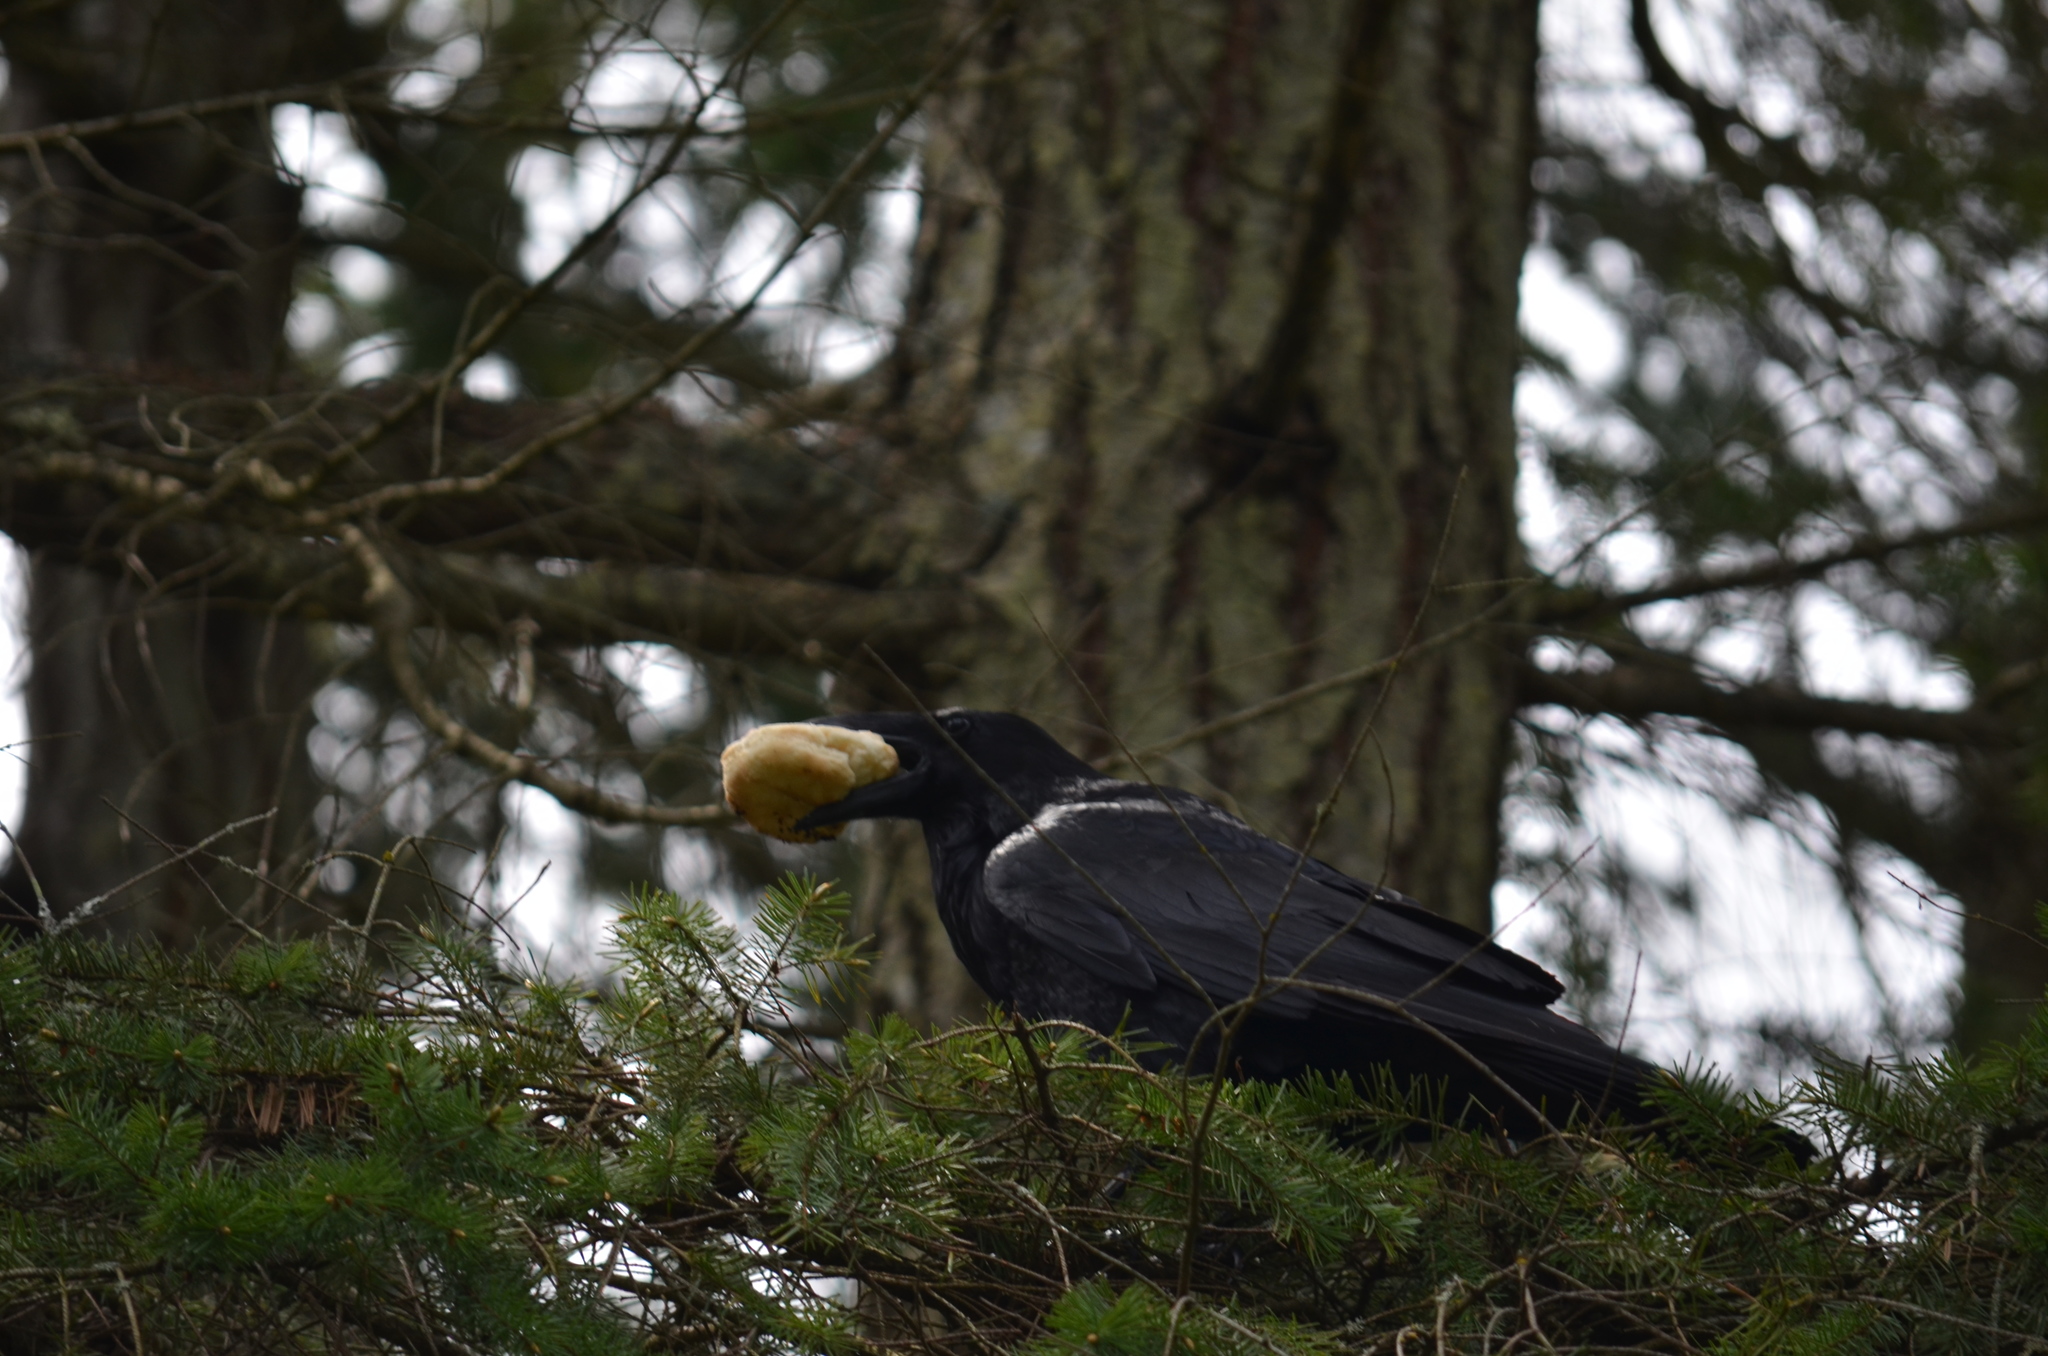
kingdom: Animalia
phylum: Chordata
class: Aves
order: Passeriformes
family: Corvidae
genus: Corvus
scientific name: Corvus corax
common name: Common raven
